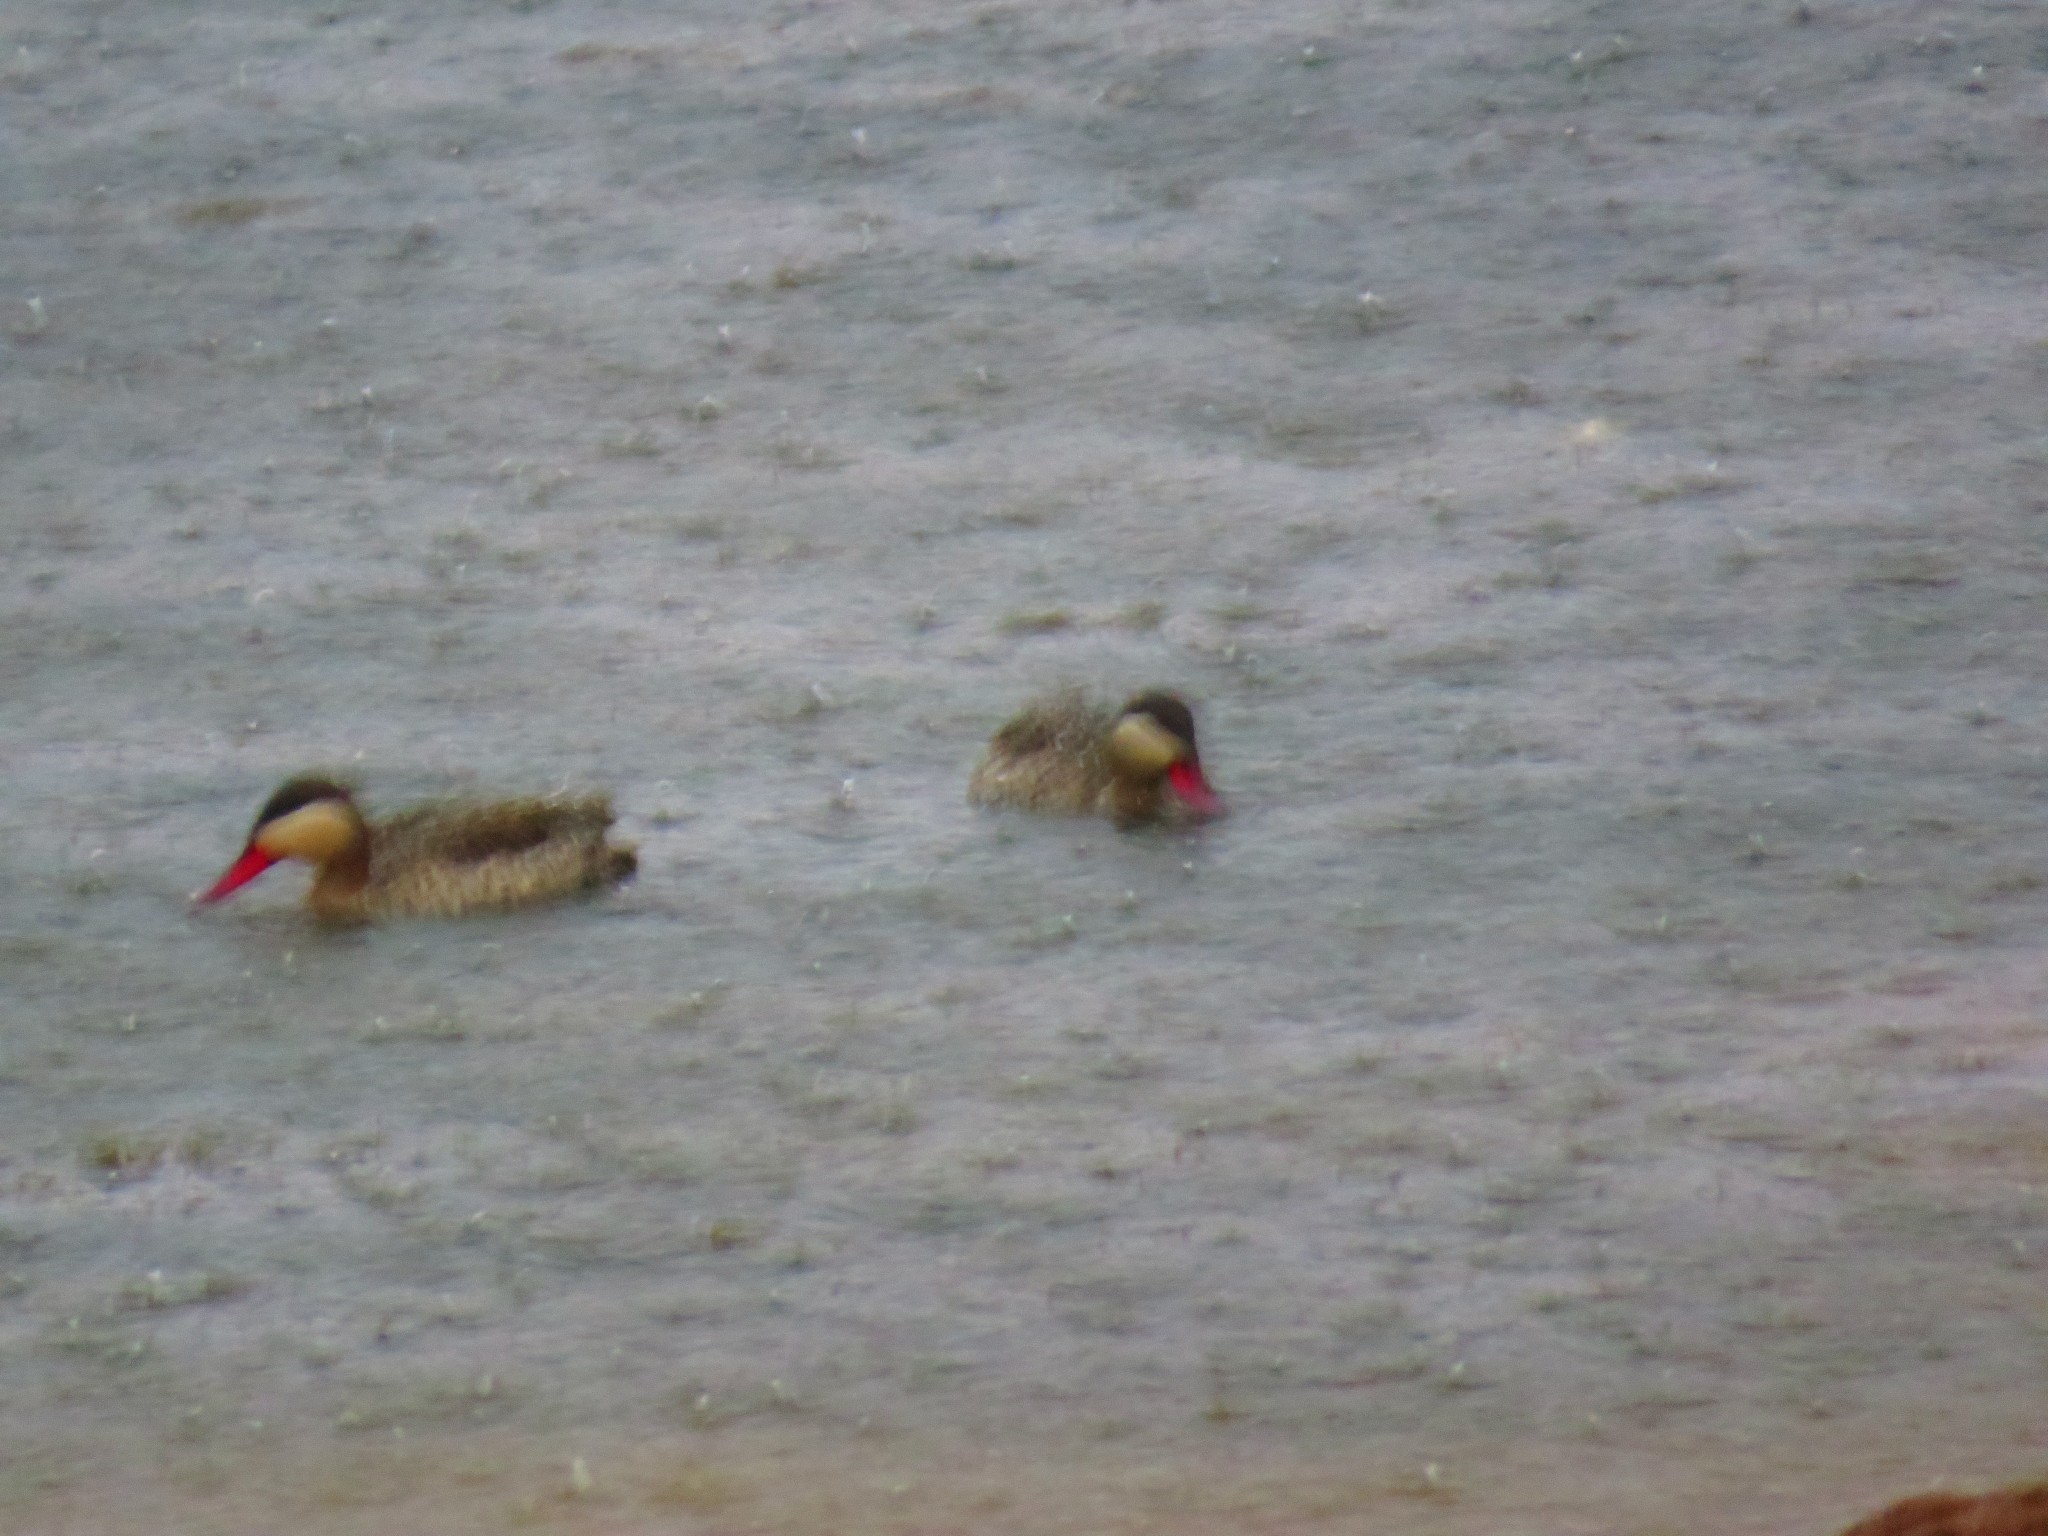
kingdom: Animalia
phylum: Chordata
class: Aves
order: Anseriformes
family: Anatidae
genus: Anas
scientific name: Anas erythrorhyncha
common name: Red-billed teal
